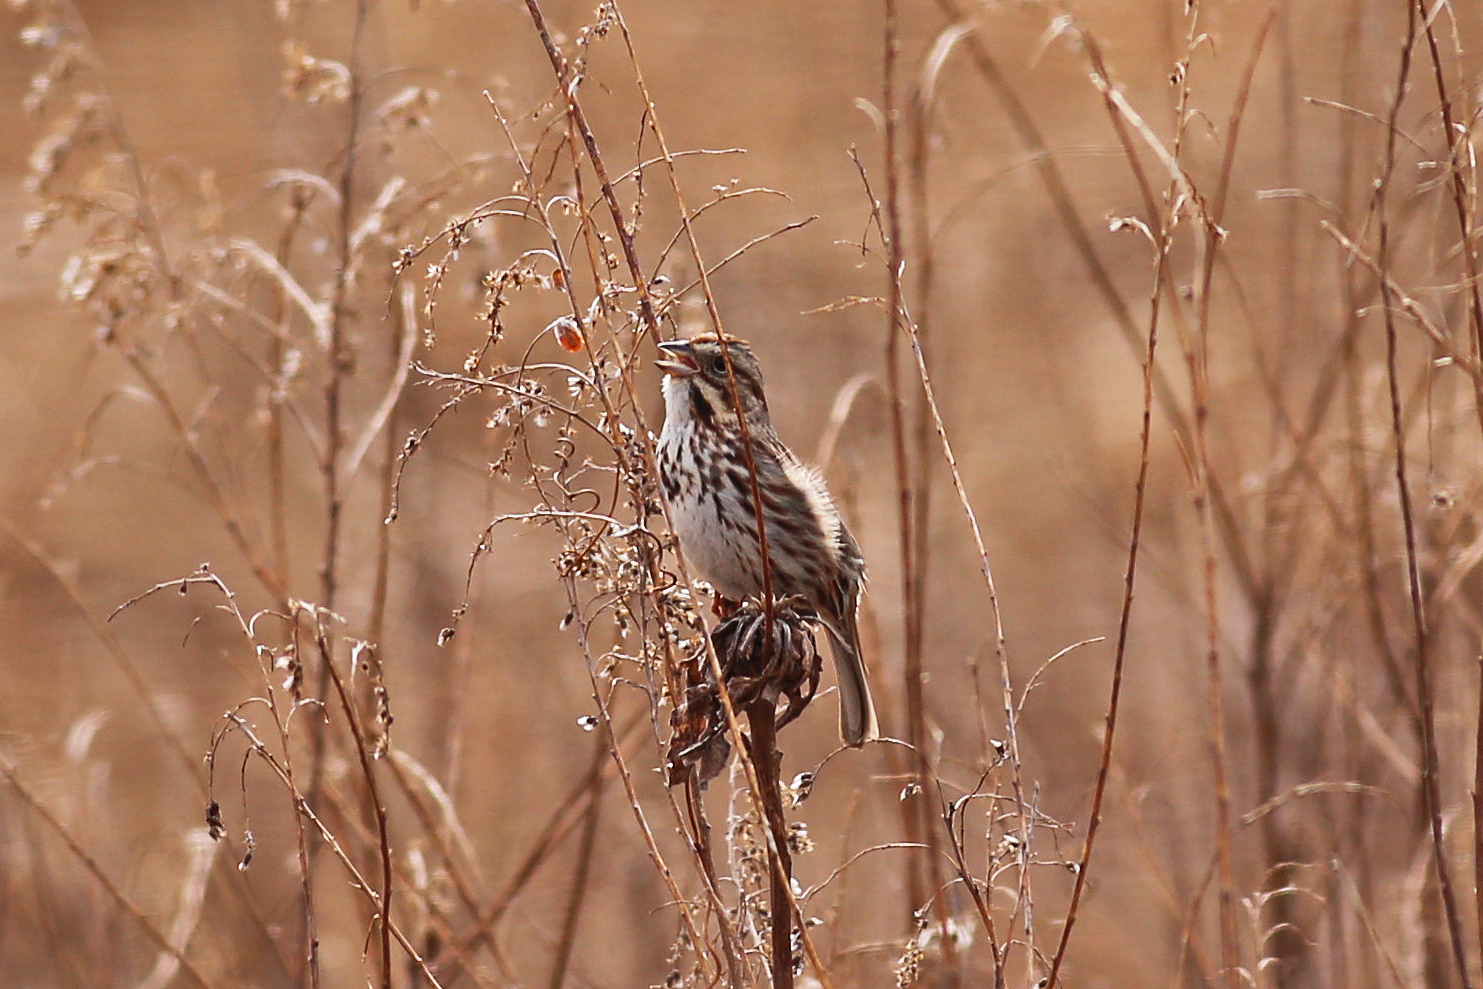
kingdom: Animalia
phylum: Chordata
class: Aves
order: Passeriformes
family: Passerellidae
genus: Melospiza
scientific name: Melospiza melodia
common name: Song sparrow
